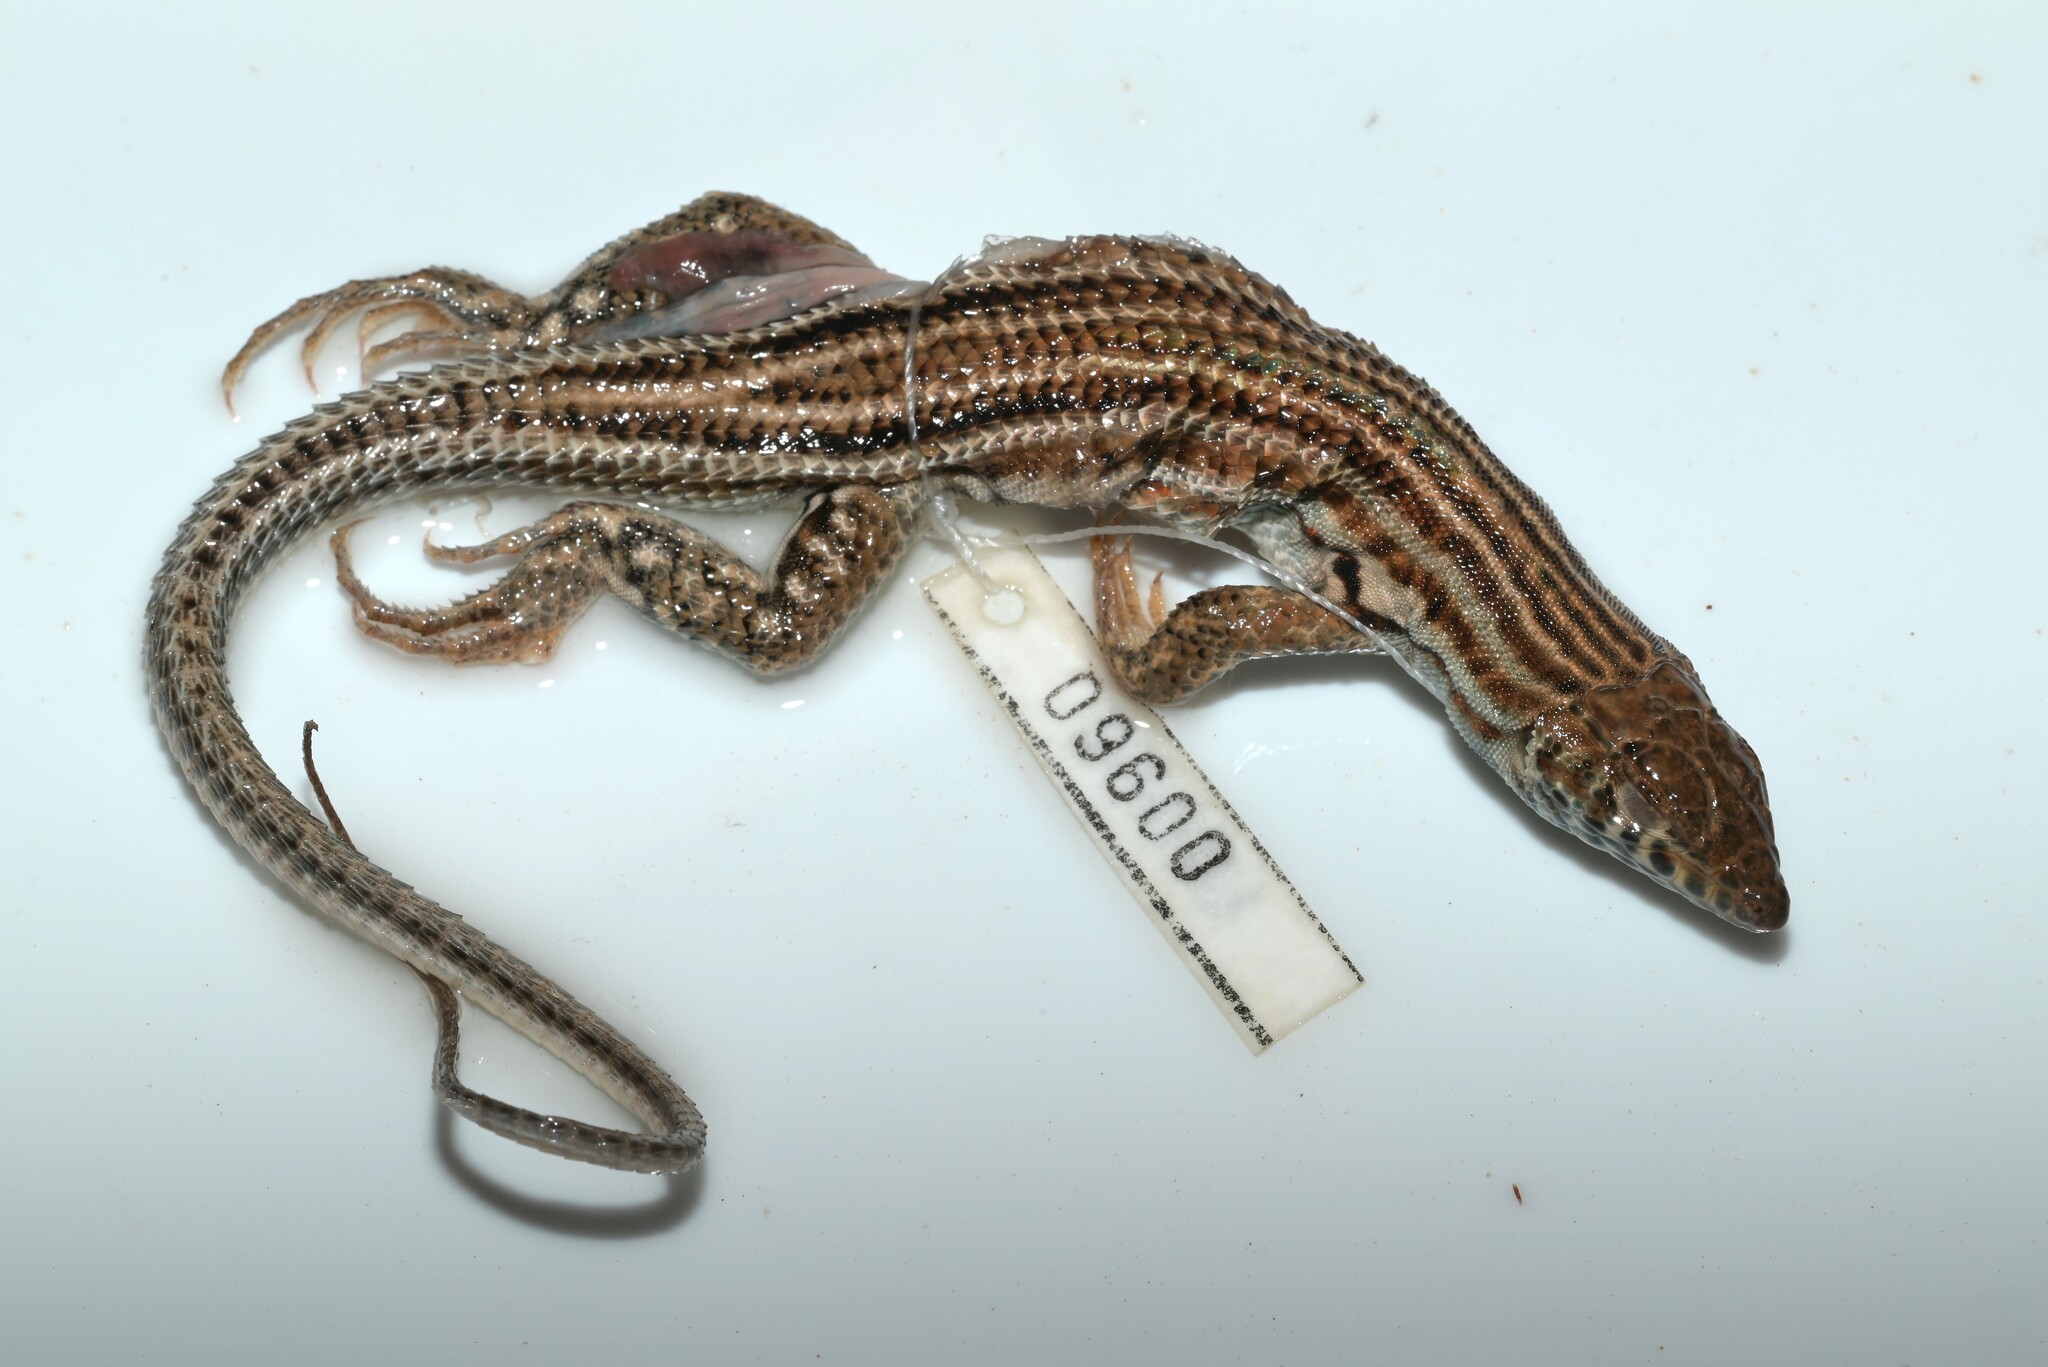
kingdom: Animalia
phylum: Chordata
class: Squamata
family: Lacertidae
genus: Acanthodactylus
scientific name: Acanthodactylus boskianus
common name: Bosc’s fringe-toed lizard
